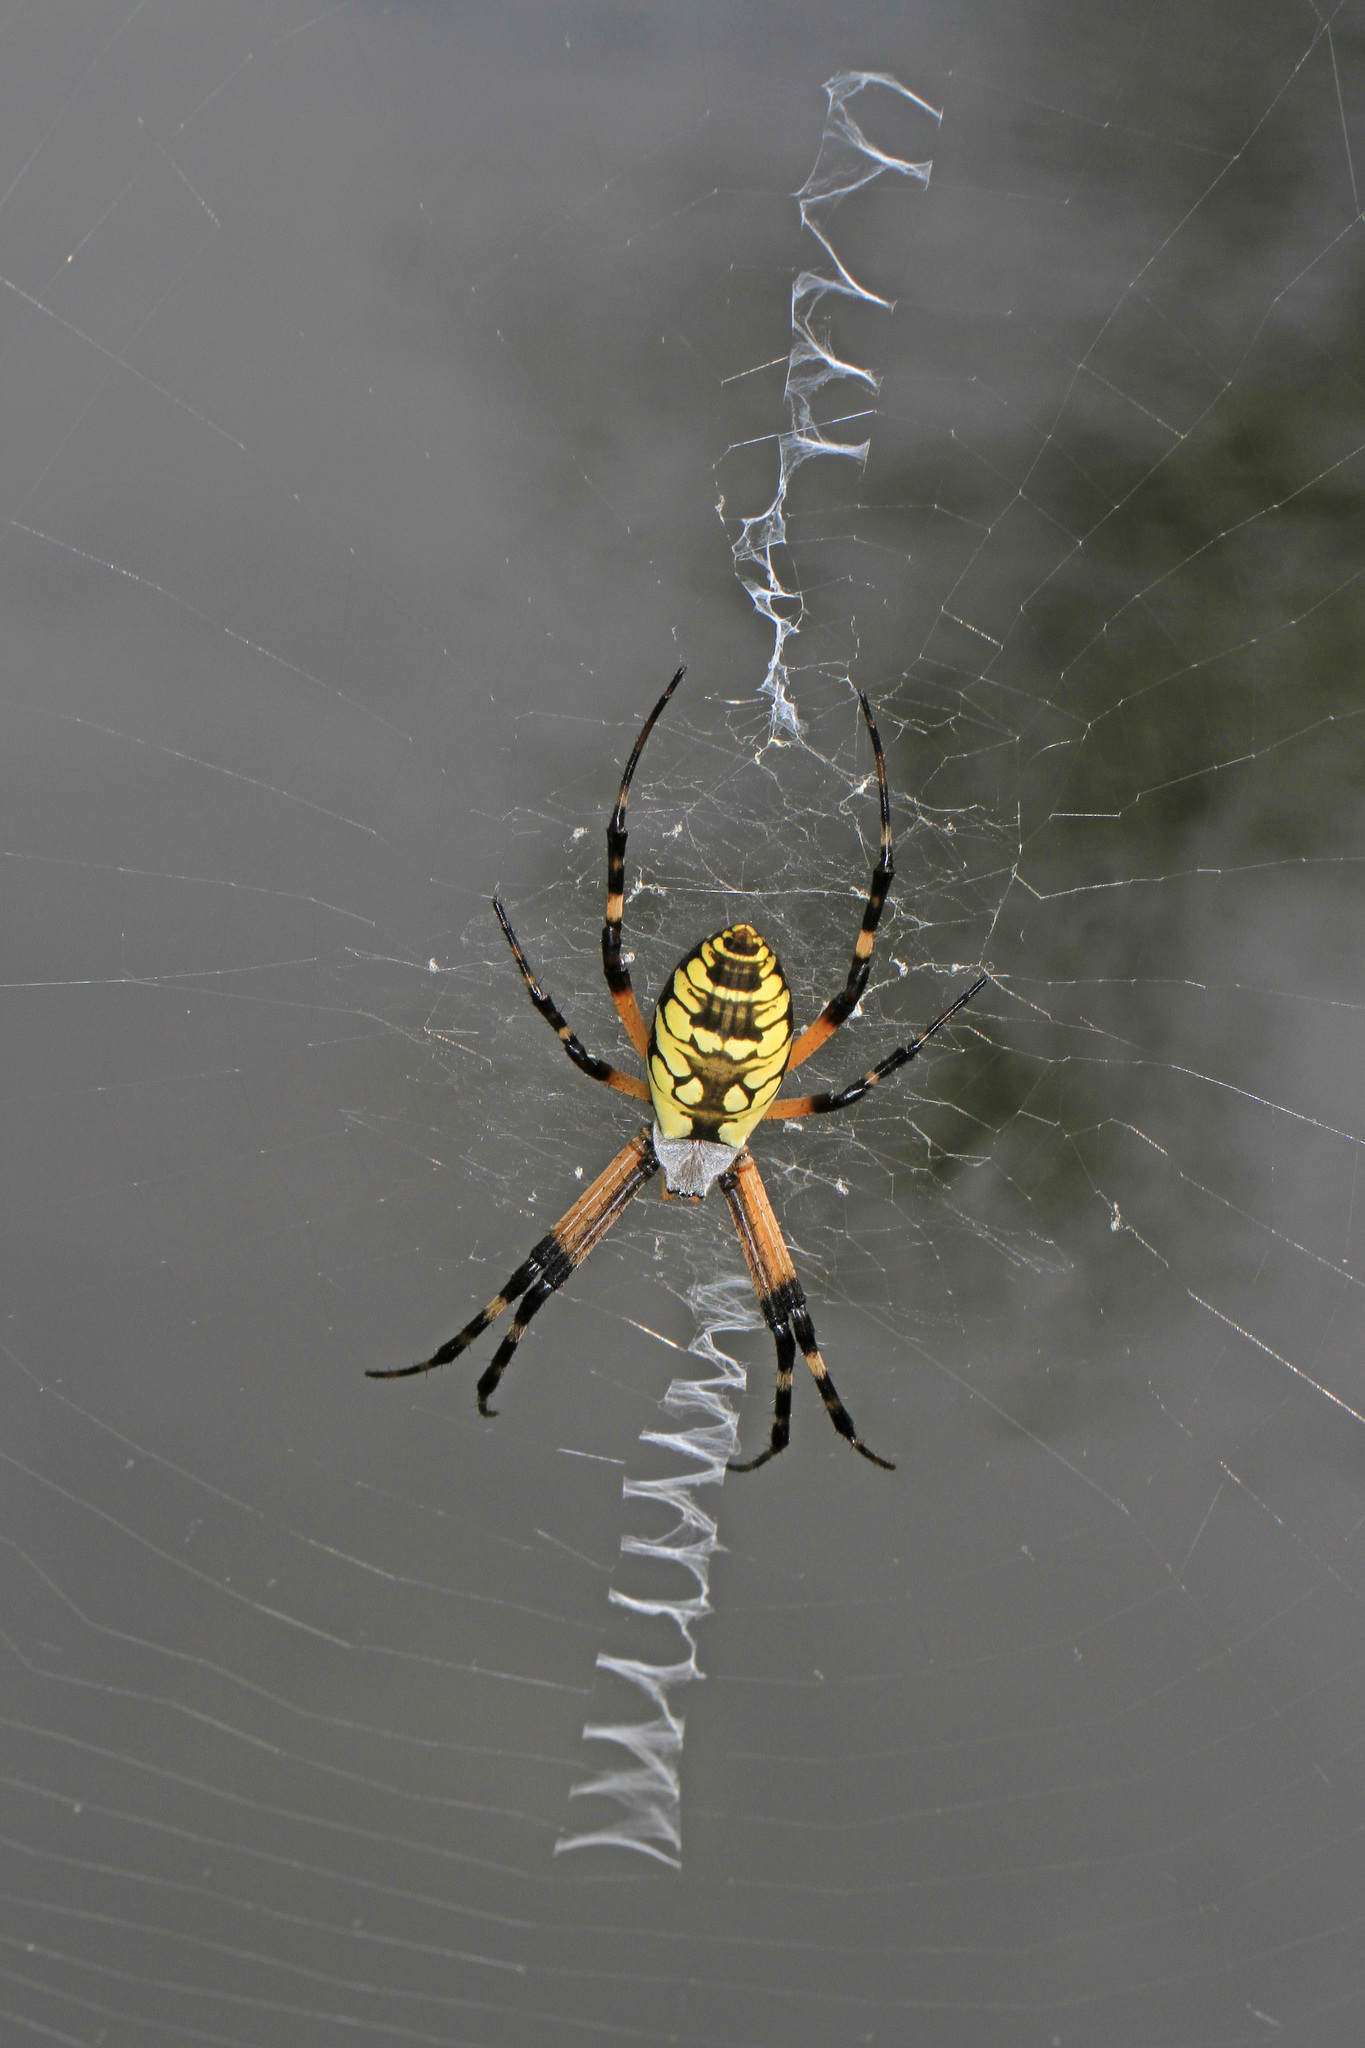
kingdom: Animalia
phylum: Arthropoda
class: Arachnida
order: Araneae
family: Araneidae
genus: Argiope
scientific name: Argiope aurantia
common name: Orb weavers
